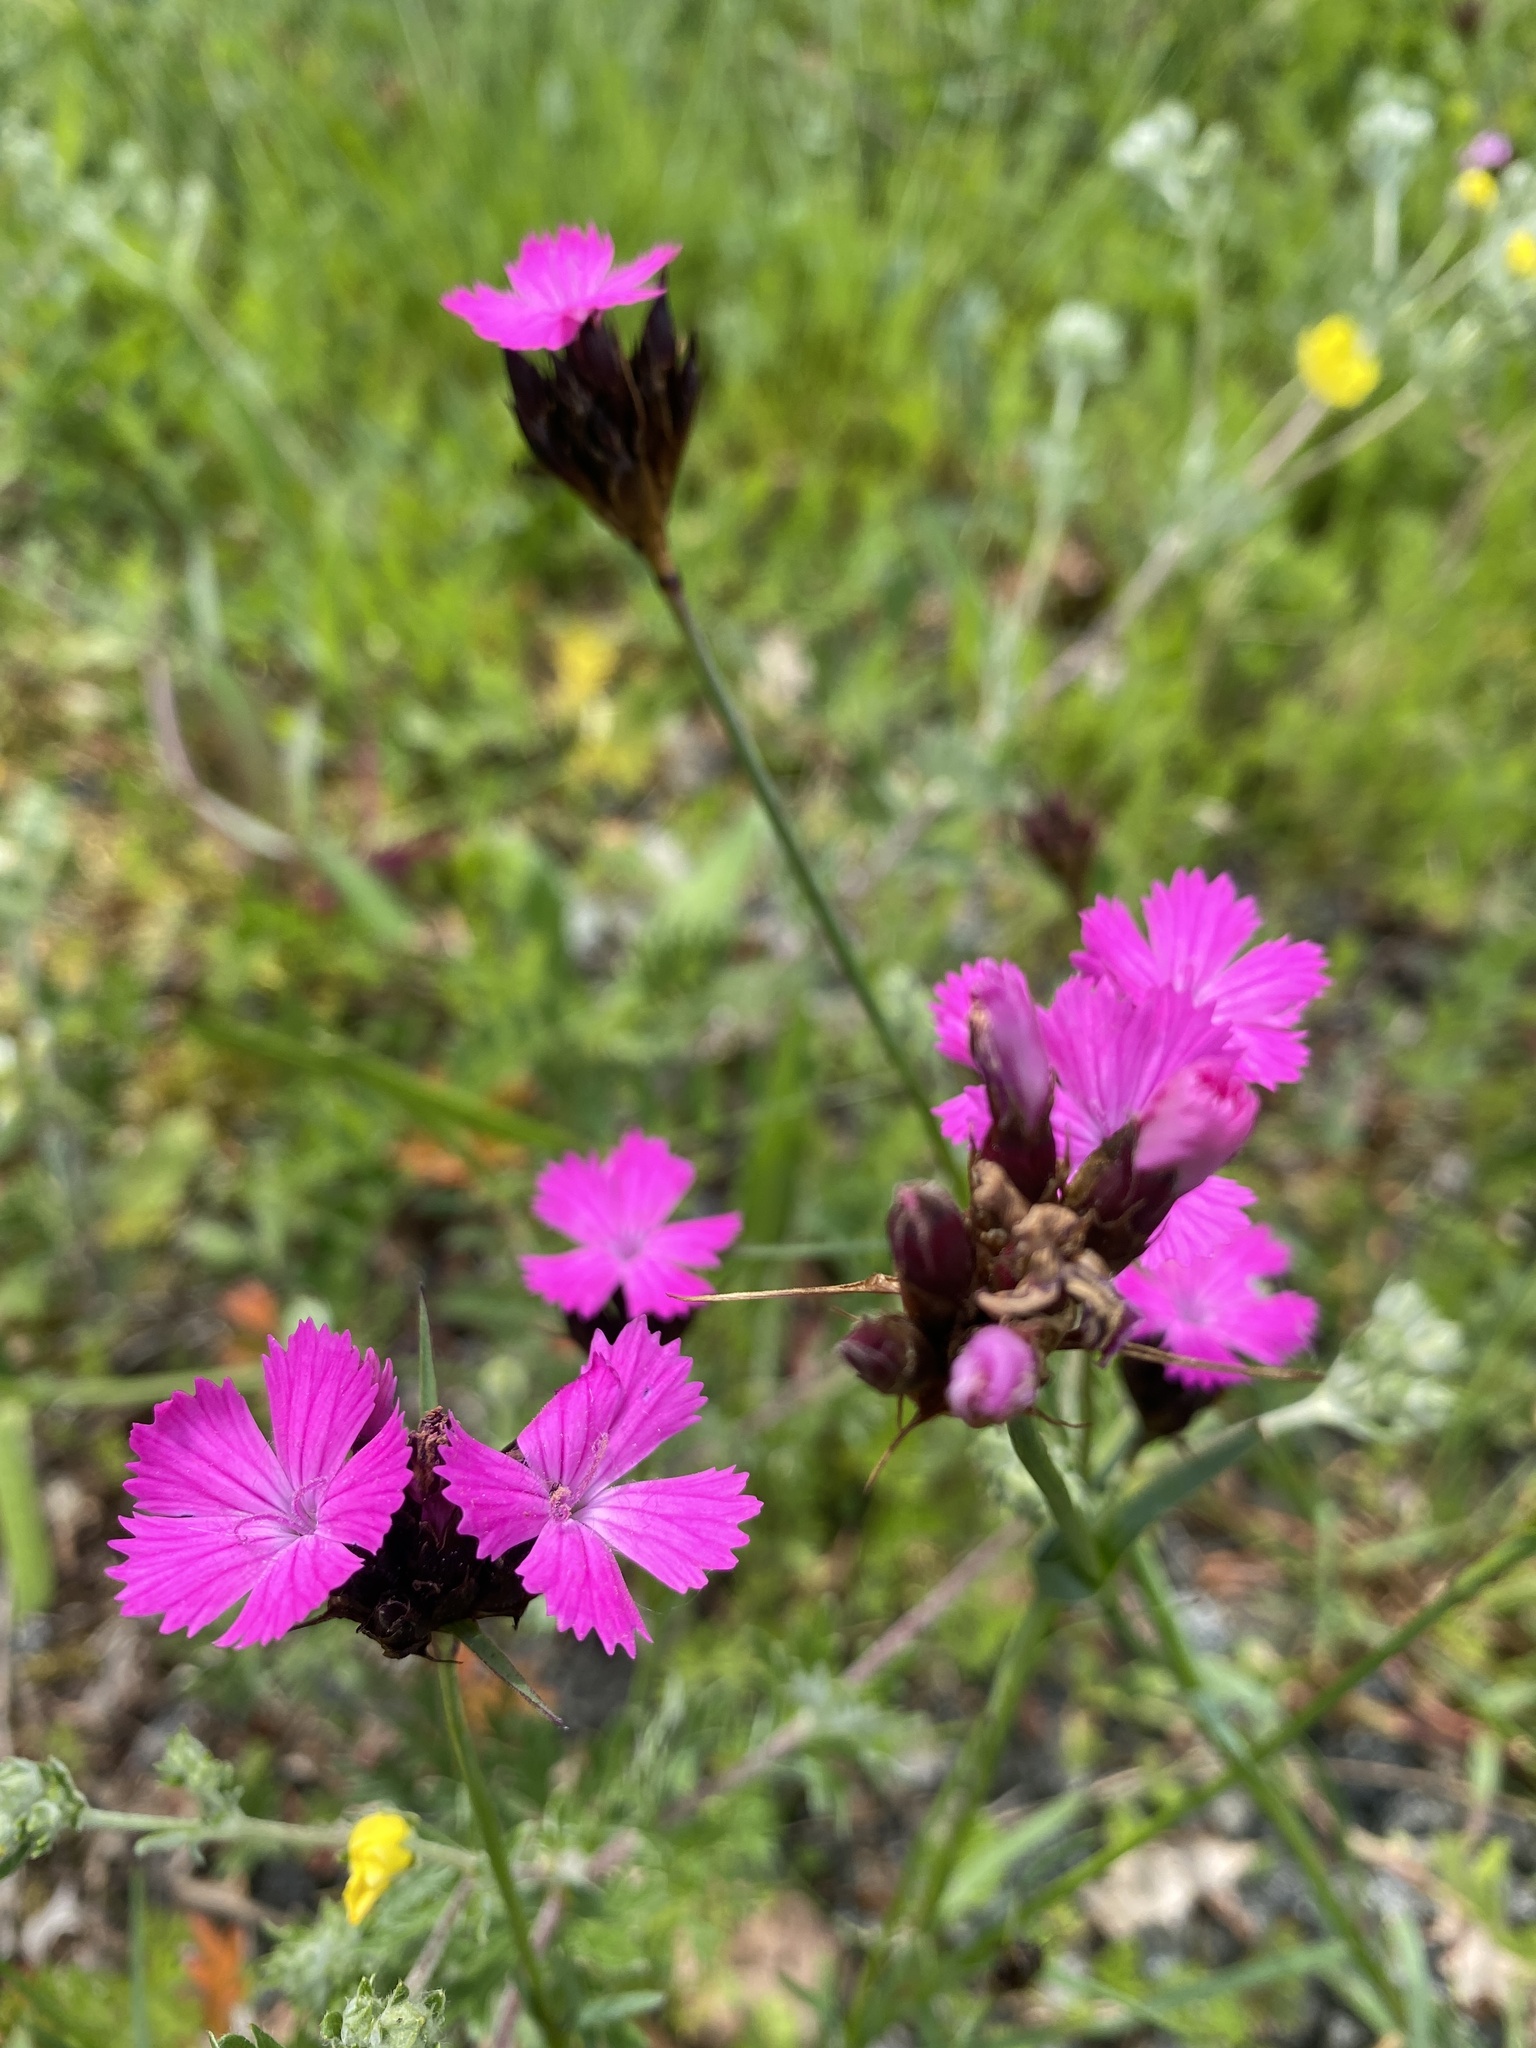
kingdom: Plantae
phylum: Tracheophyta
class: Magnoliopsida
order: Caryophyllales
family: Caryophyllaceae
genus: Dianthus
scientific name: Dianthus carthusianorum
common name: Carthusian pink
